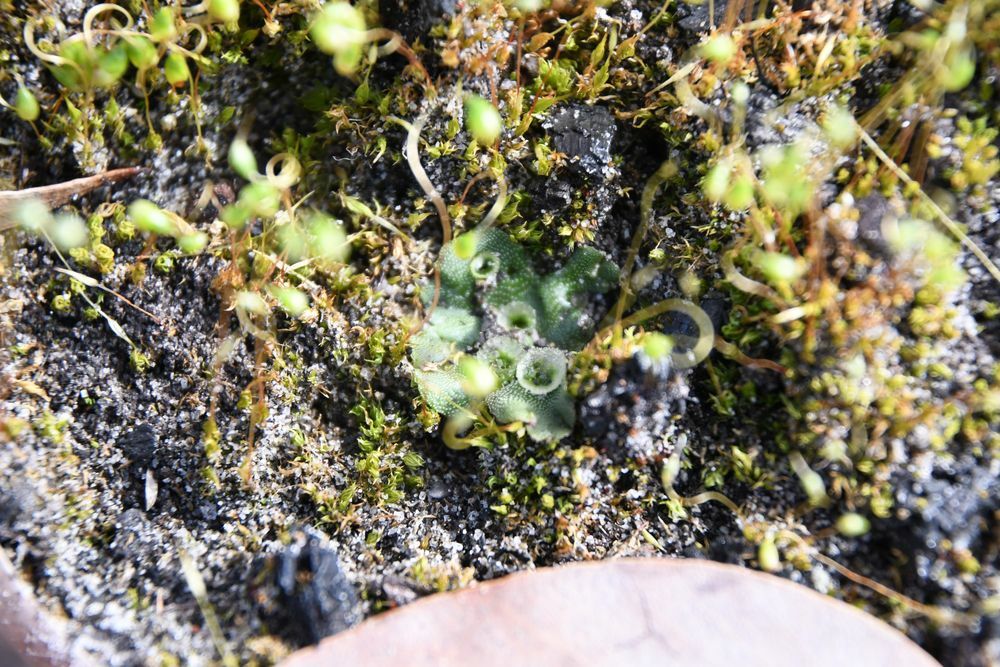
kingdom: Plantae
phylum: Marchantiophyta
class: Marchantiopsida
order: Marchantiales
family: Marchantiaceae
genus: Marchantia
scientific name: Marchantia berteroana
